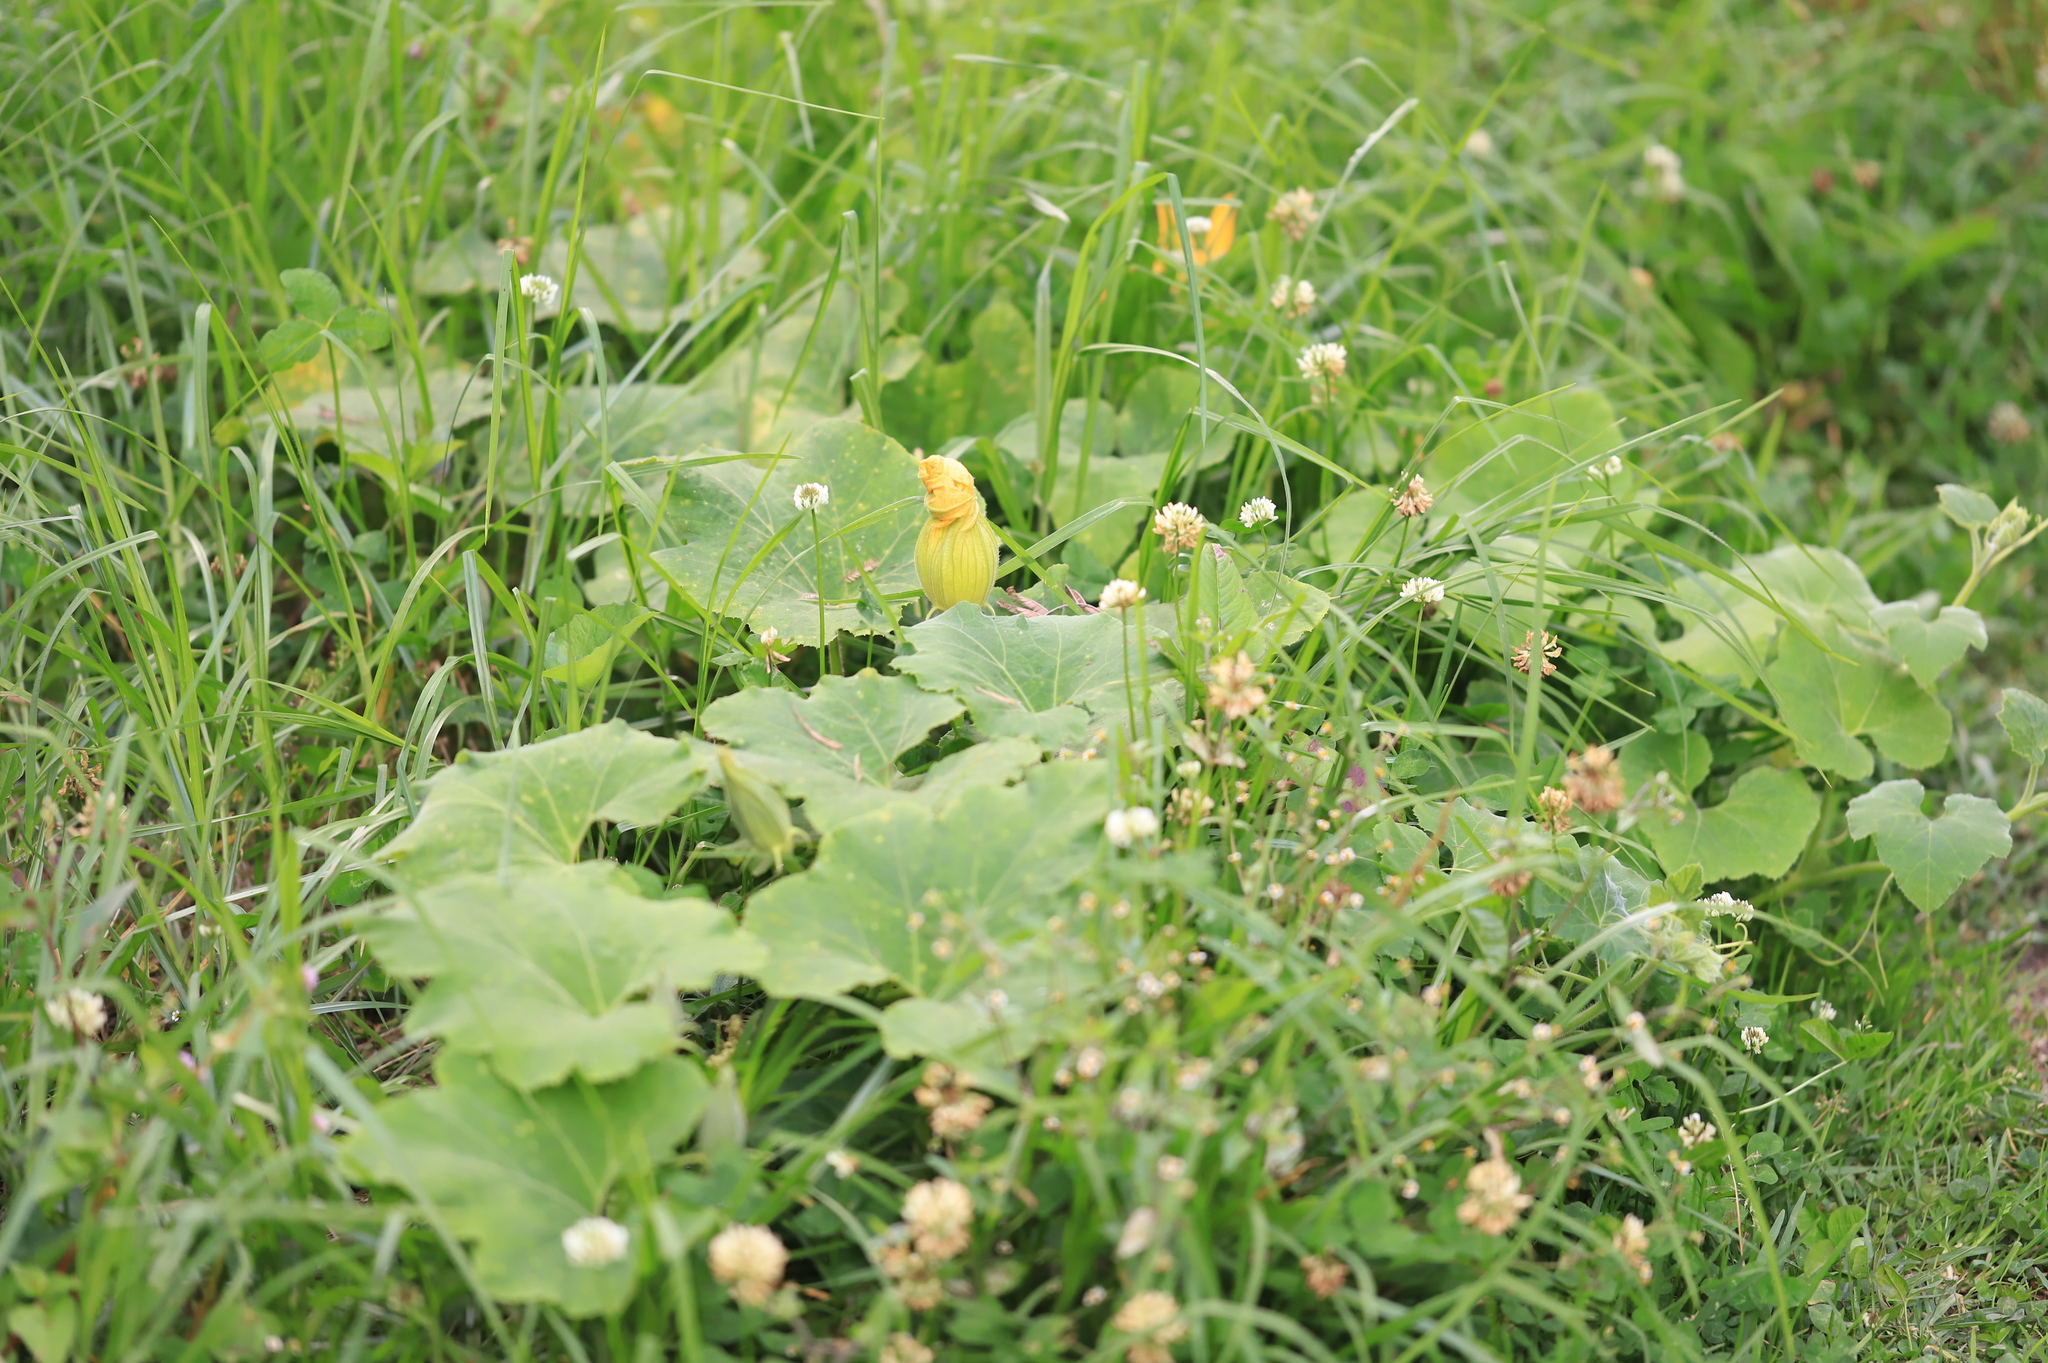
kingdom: Plantae
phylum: Tracheophyta
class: Magnoliopsida
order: Cucurbitales
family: Cucurbitaceae
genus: Cucurbita
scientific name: Cucurbita maxima
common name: Pumpkin
